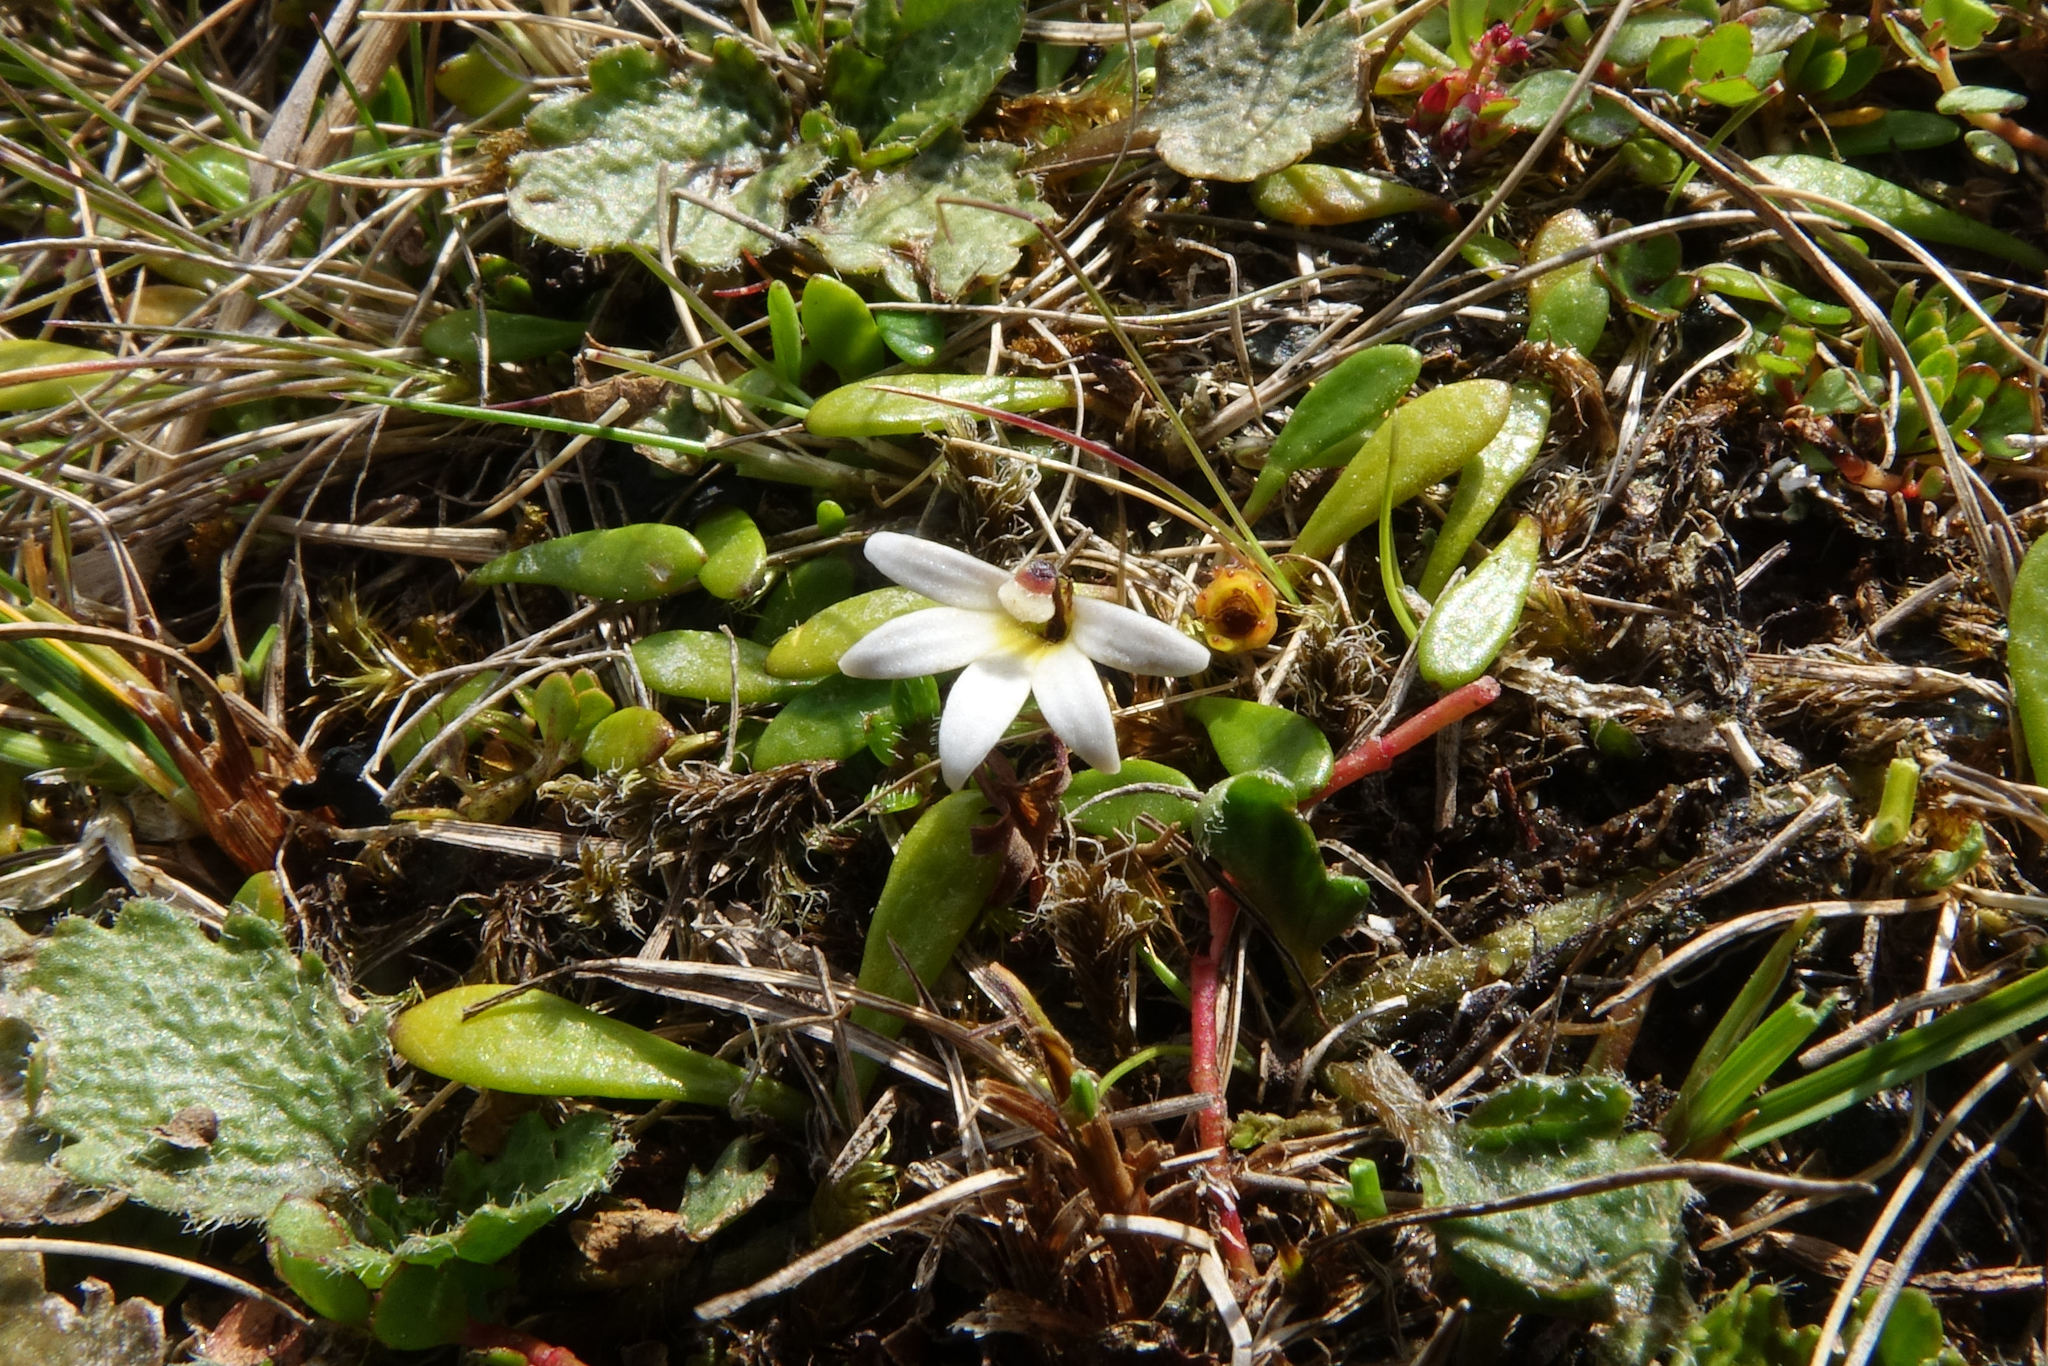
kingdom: Plantae
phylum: Tracheophyta
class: Magnoliopsida
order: Asterales
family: Goodeniaceae
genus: Goodenia
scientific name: Goodenia radicans
